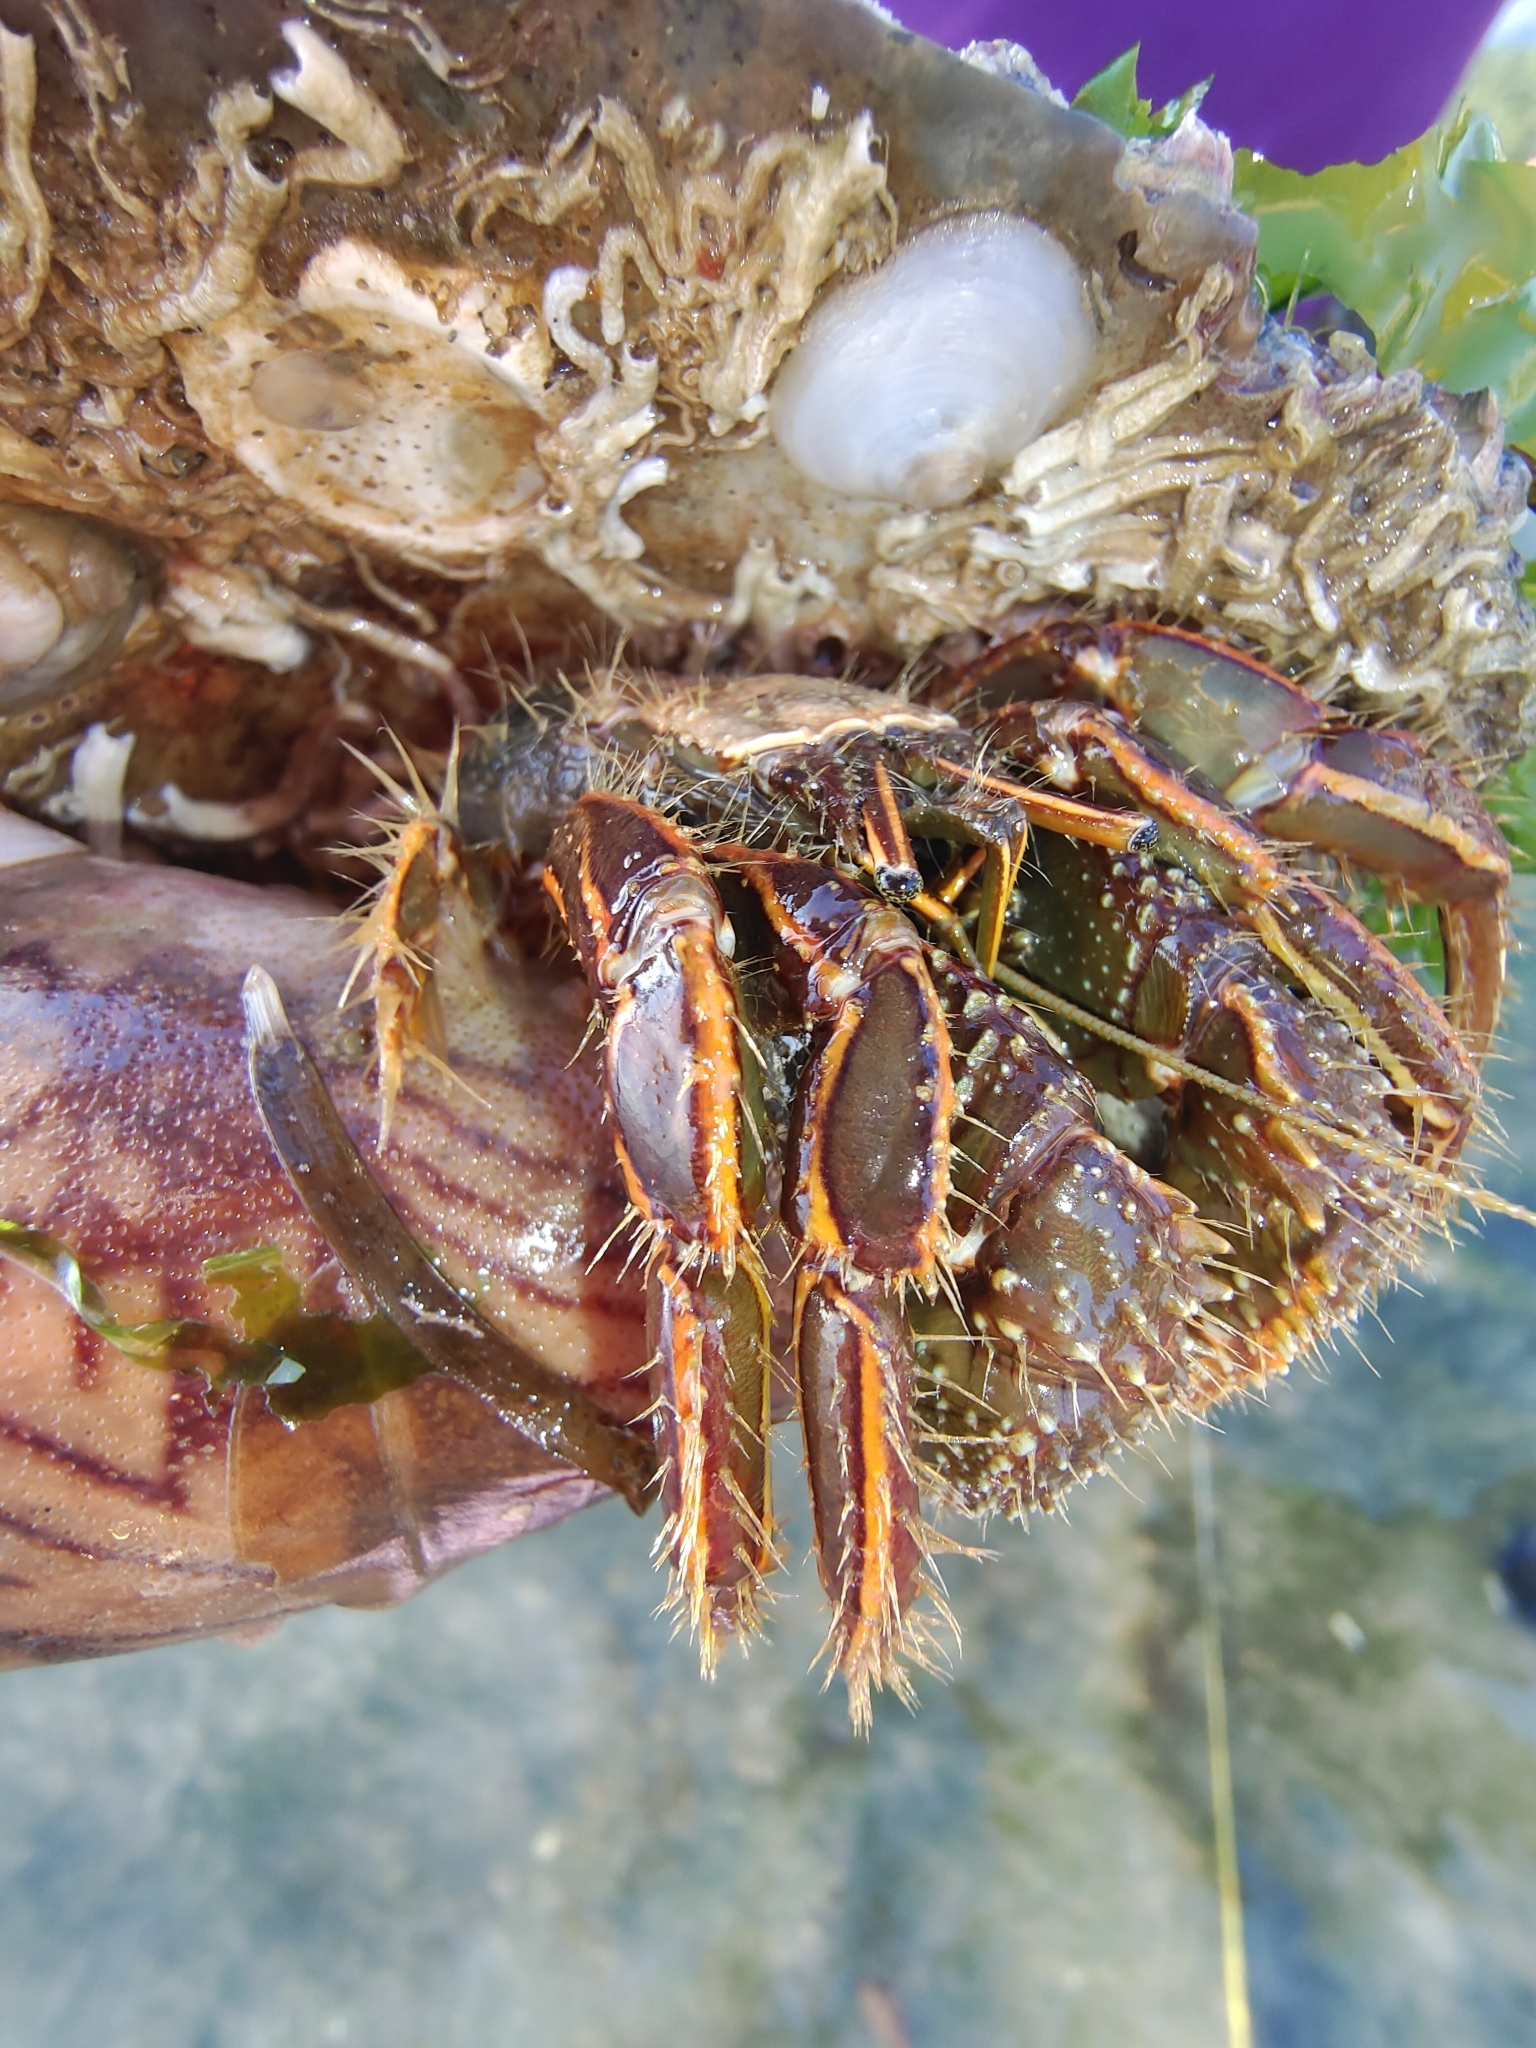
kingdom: Animalia
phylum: Arthropoda
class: Malacostraca
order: Decapoda
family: Diogenidae
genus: Clibanarius
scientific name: Clibanarius infraspinatus
